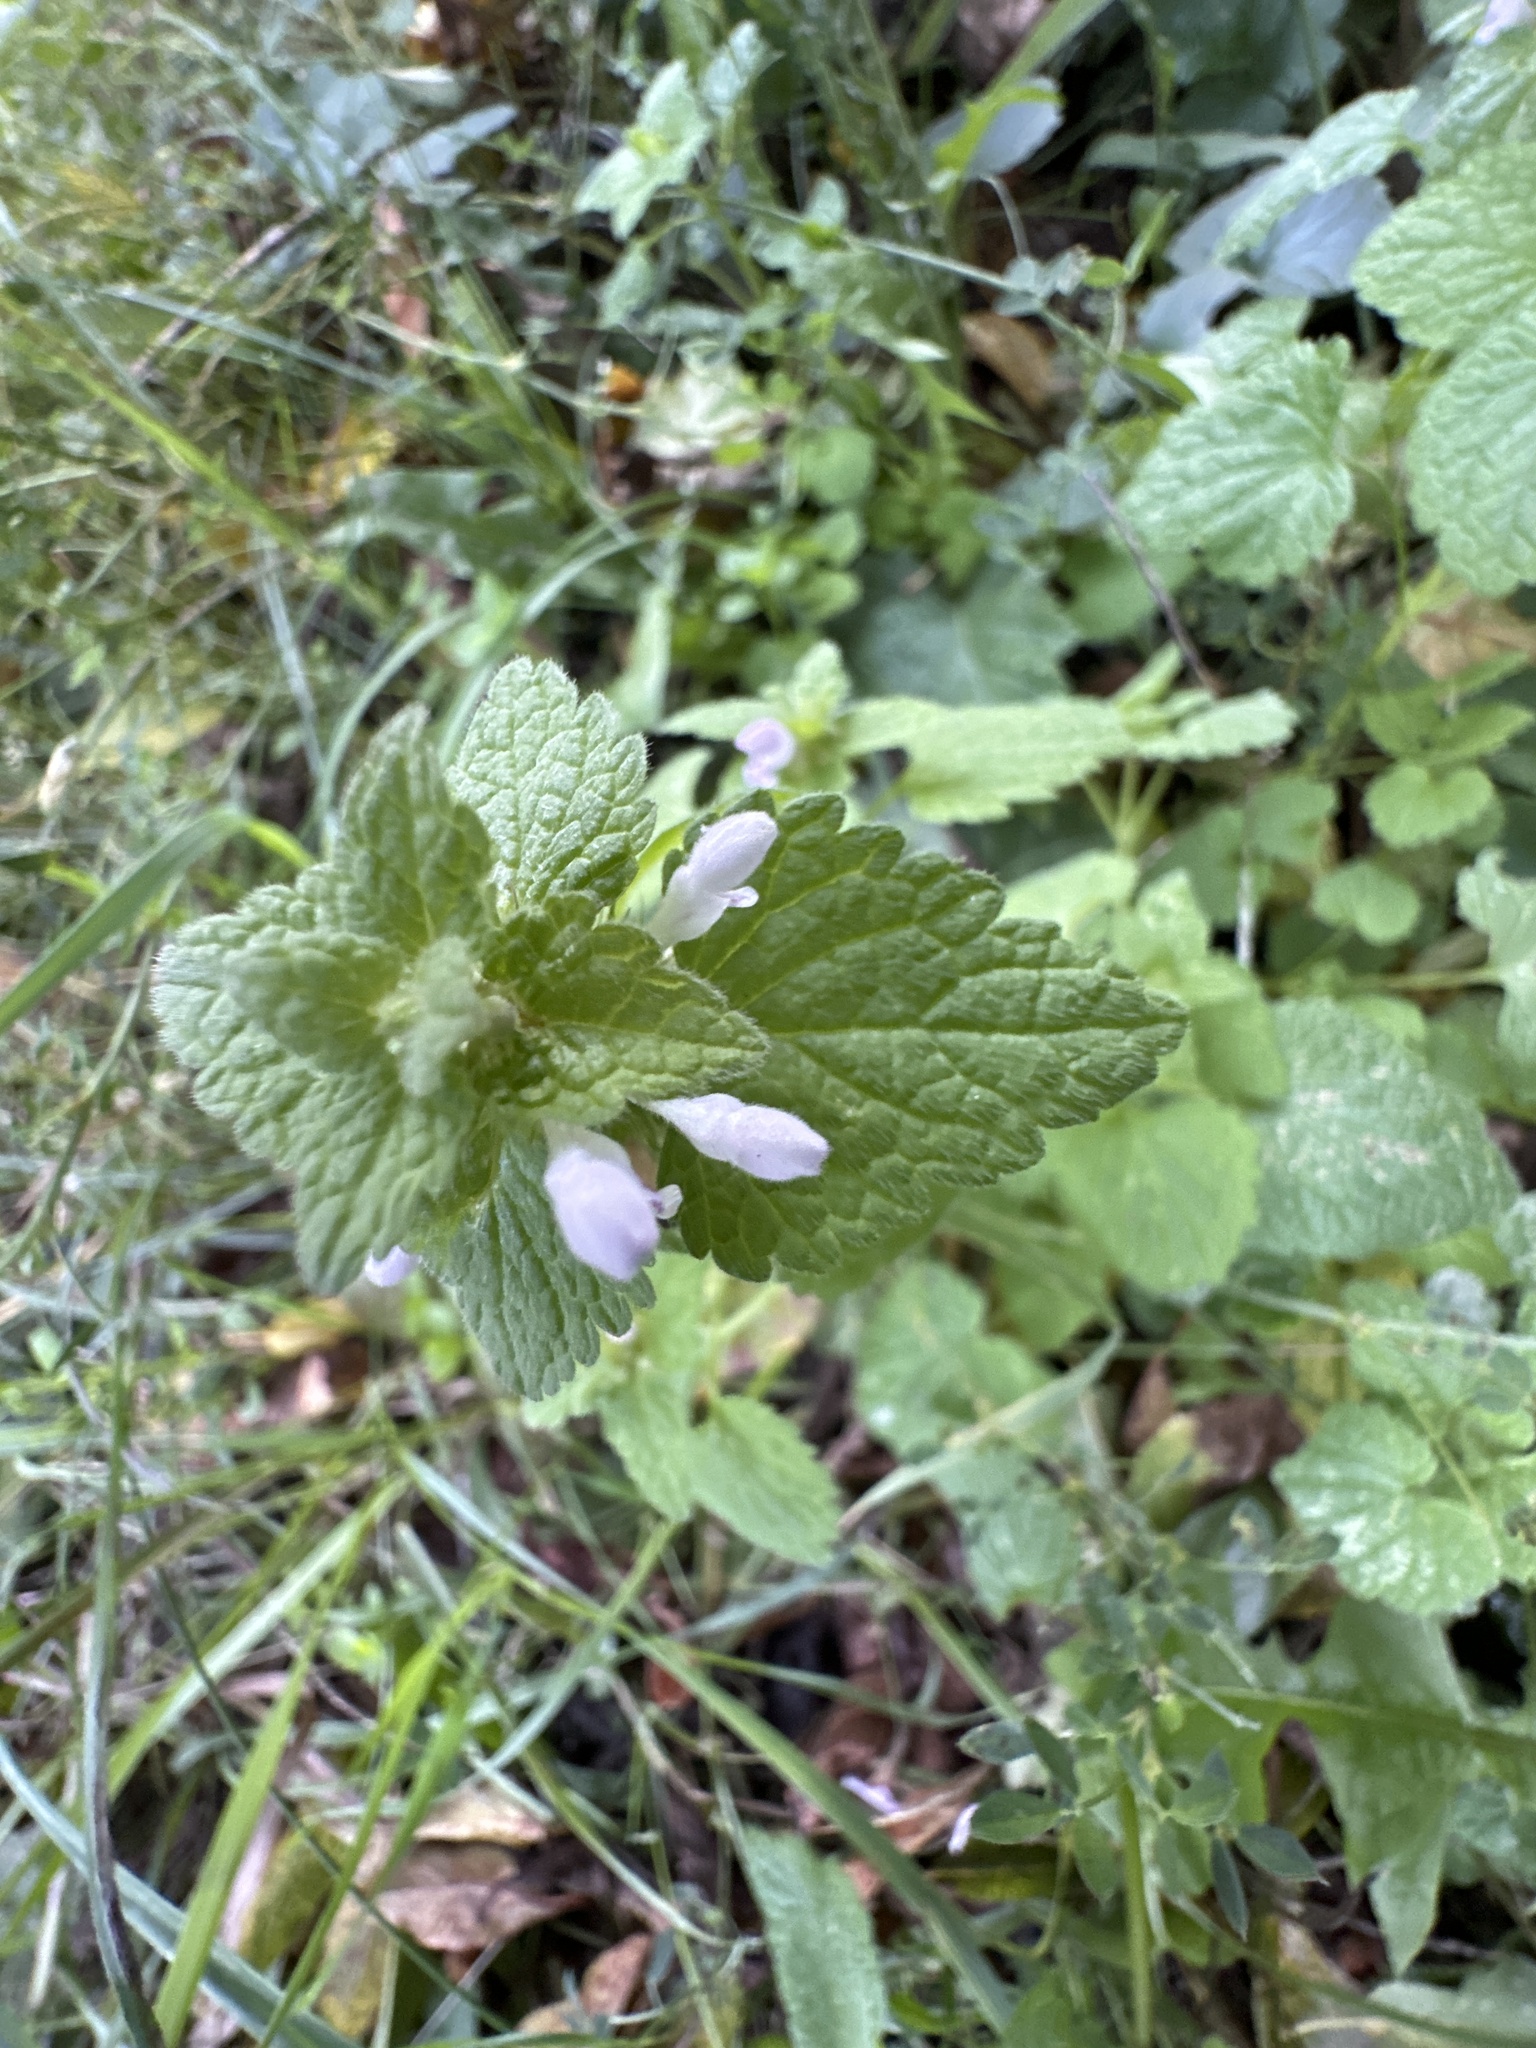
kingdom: Plantae
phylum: Tracheophyta
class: Magnoliopsida
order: Lamiales
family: Lamiaceae
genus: Lamium
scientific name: Lamium purpureum
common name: Red dead-nettle
